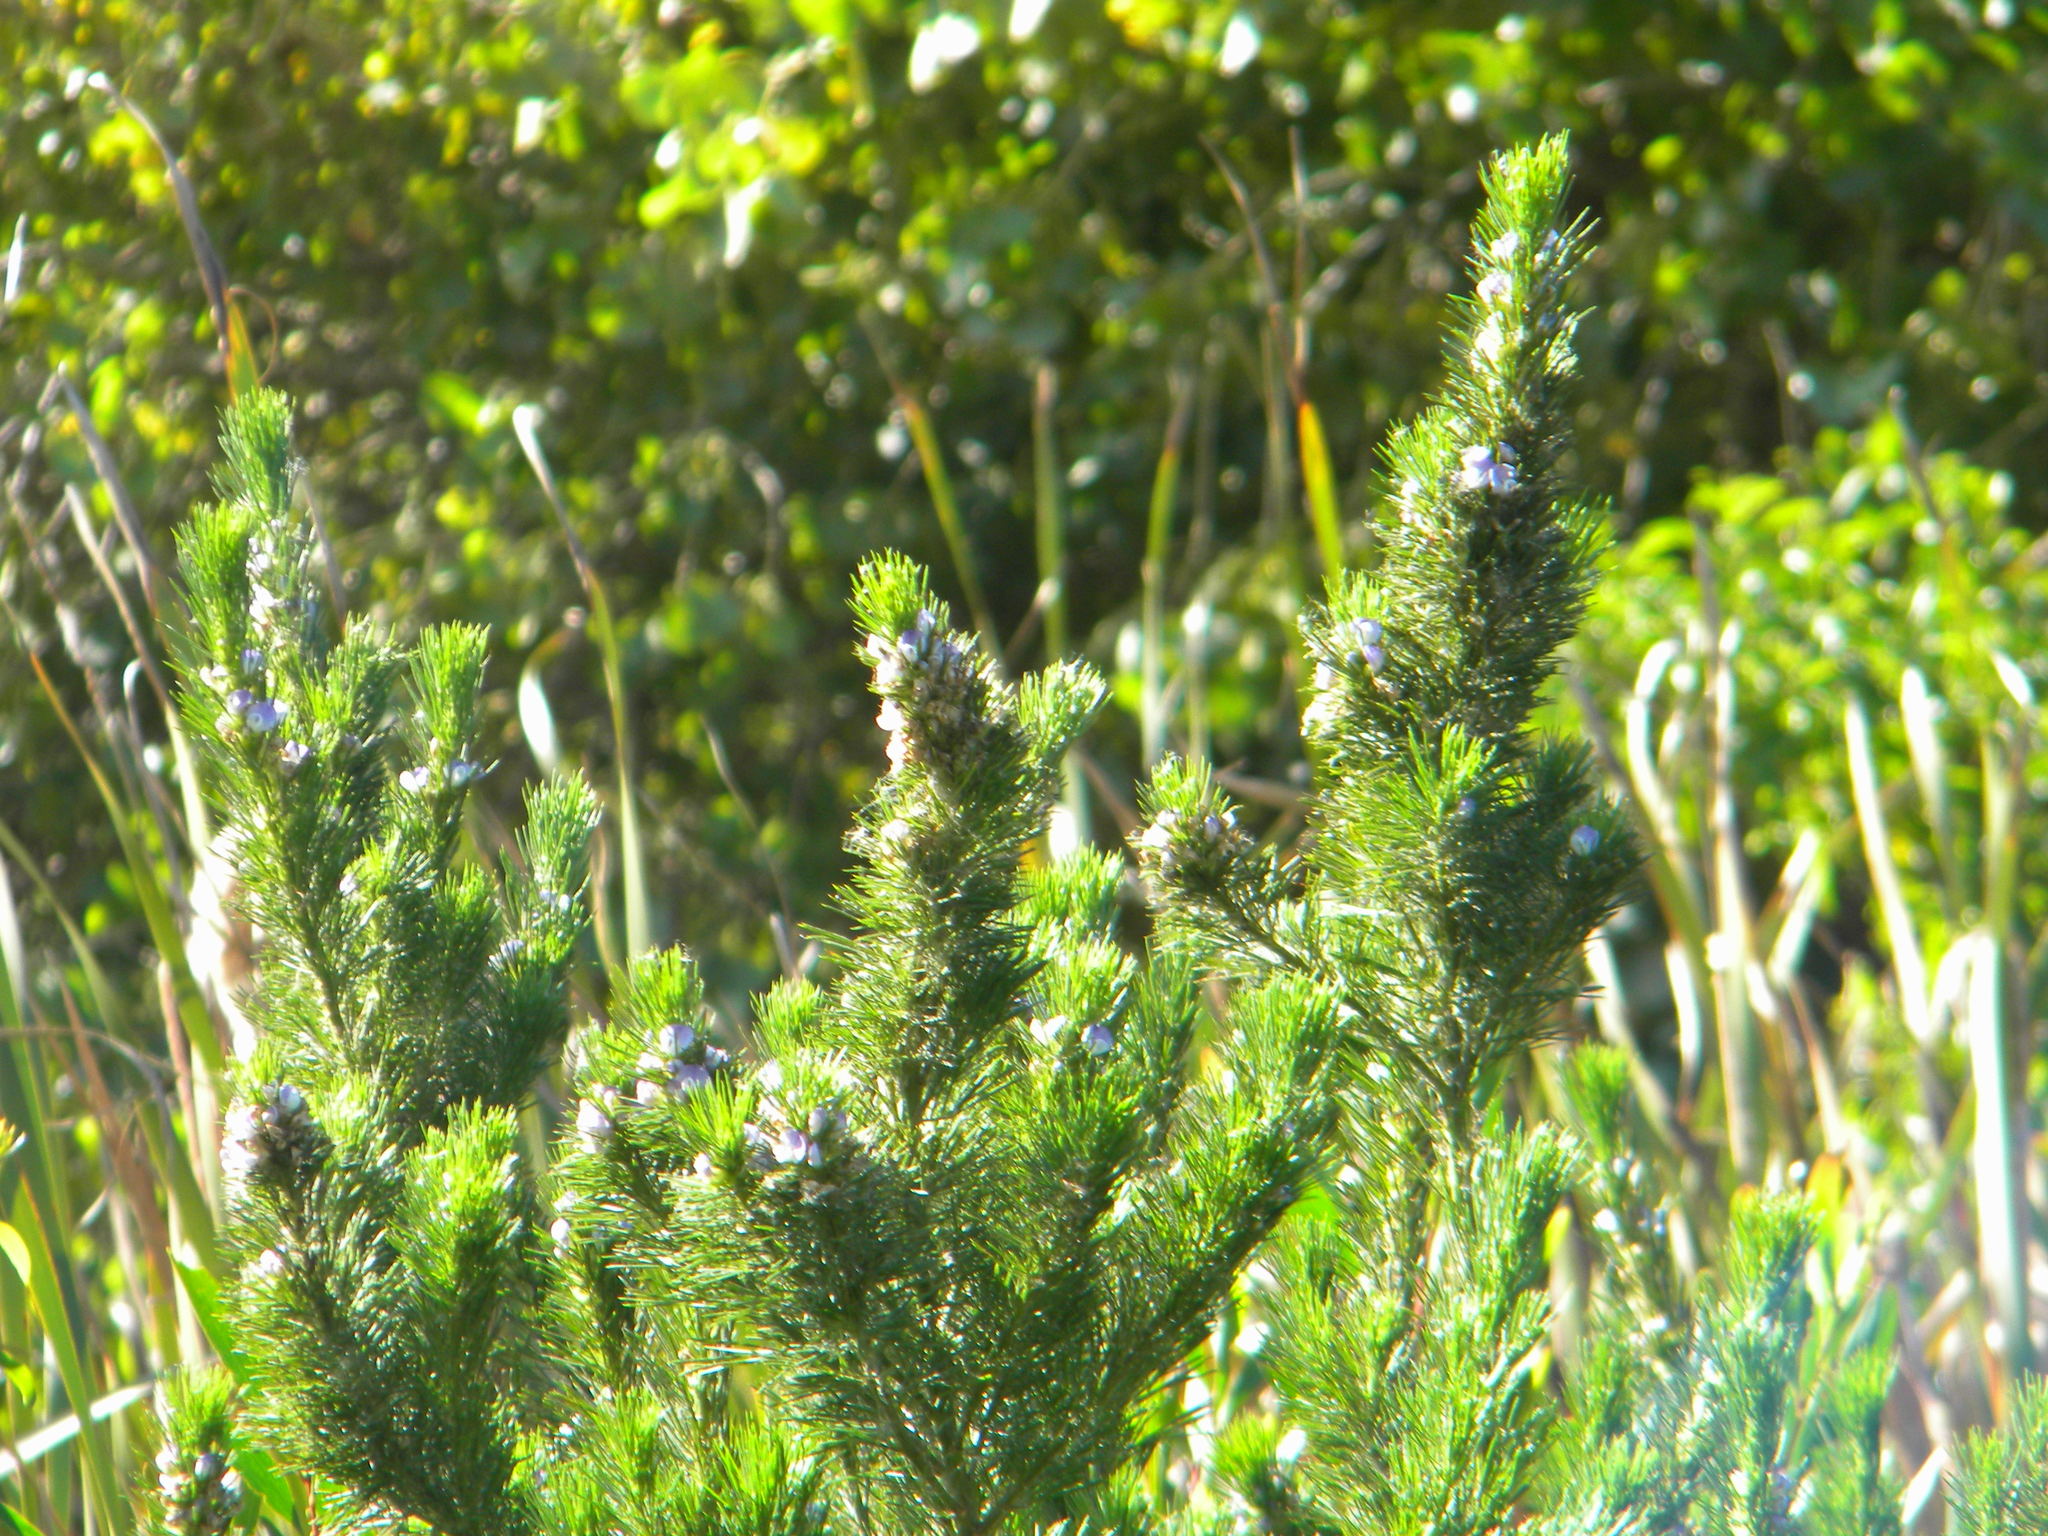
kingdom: Plantae
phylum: Tracheophyta
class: Magnoliopsida
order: Fabales
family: Fabaceae
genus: Psoralea
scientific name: Psoralea pinnata
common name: African scurfpea
